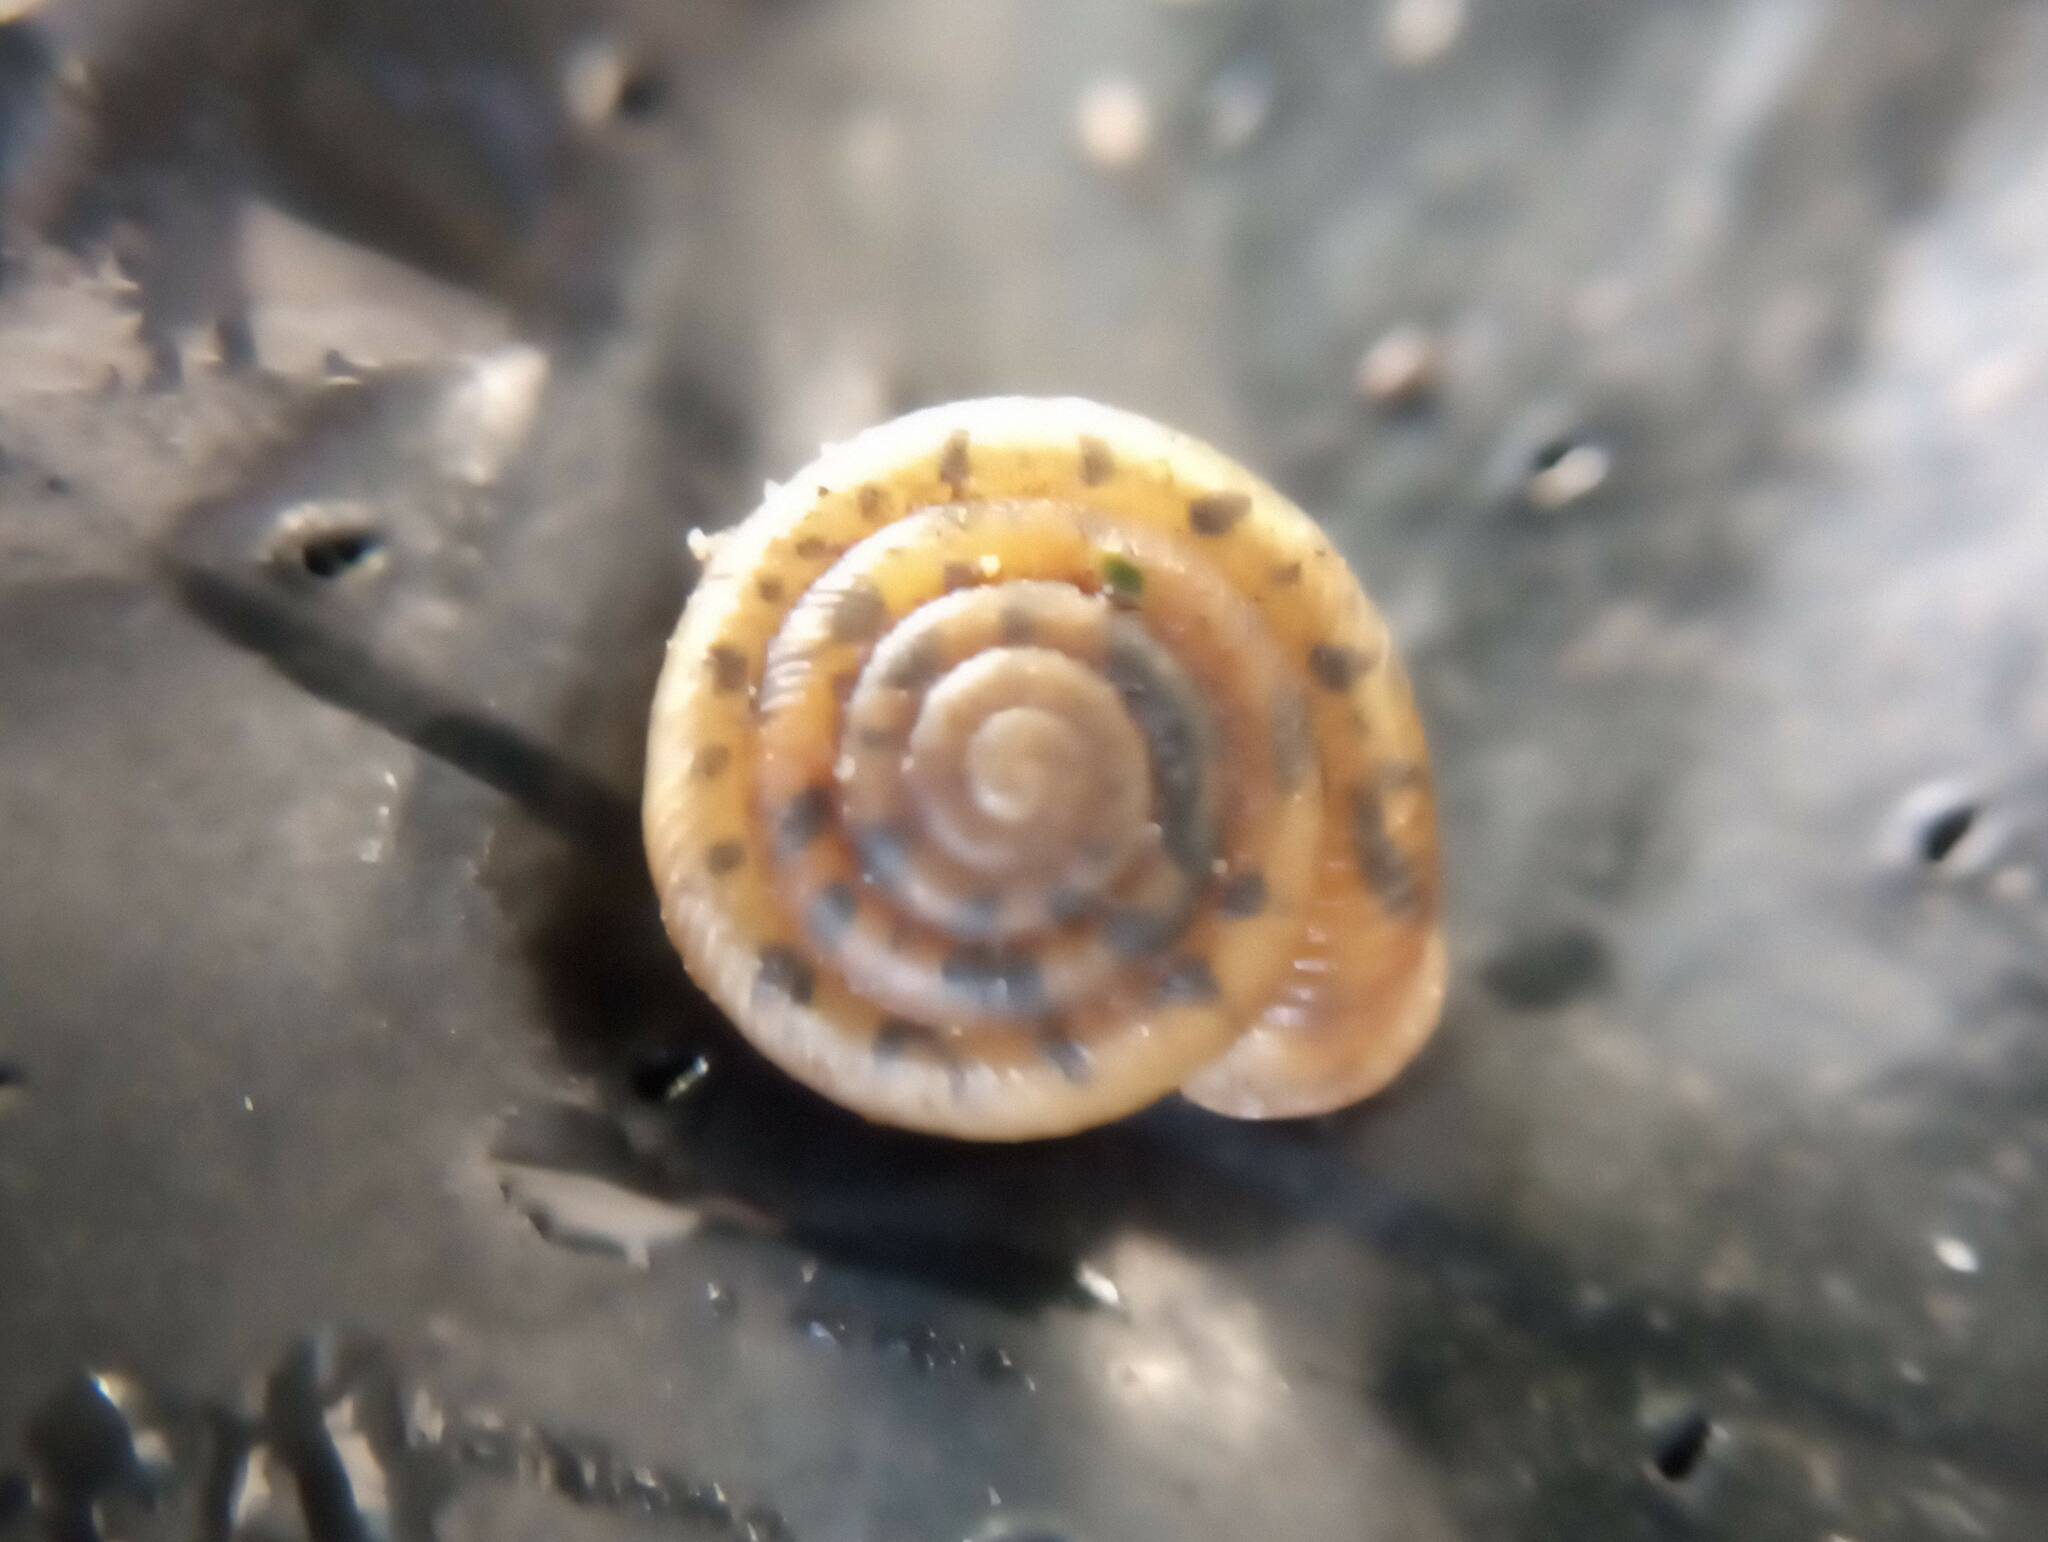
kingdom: Animalia
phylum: Mollusca
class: Gastropoda
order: Stylommatophora
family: Polygyridae
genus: Polygyra
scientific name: Polygyra cereolus
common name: Southern flatcone snail
